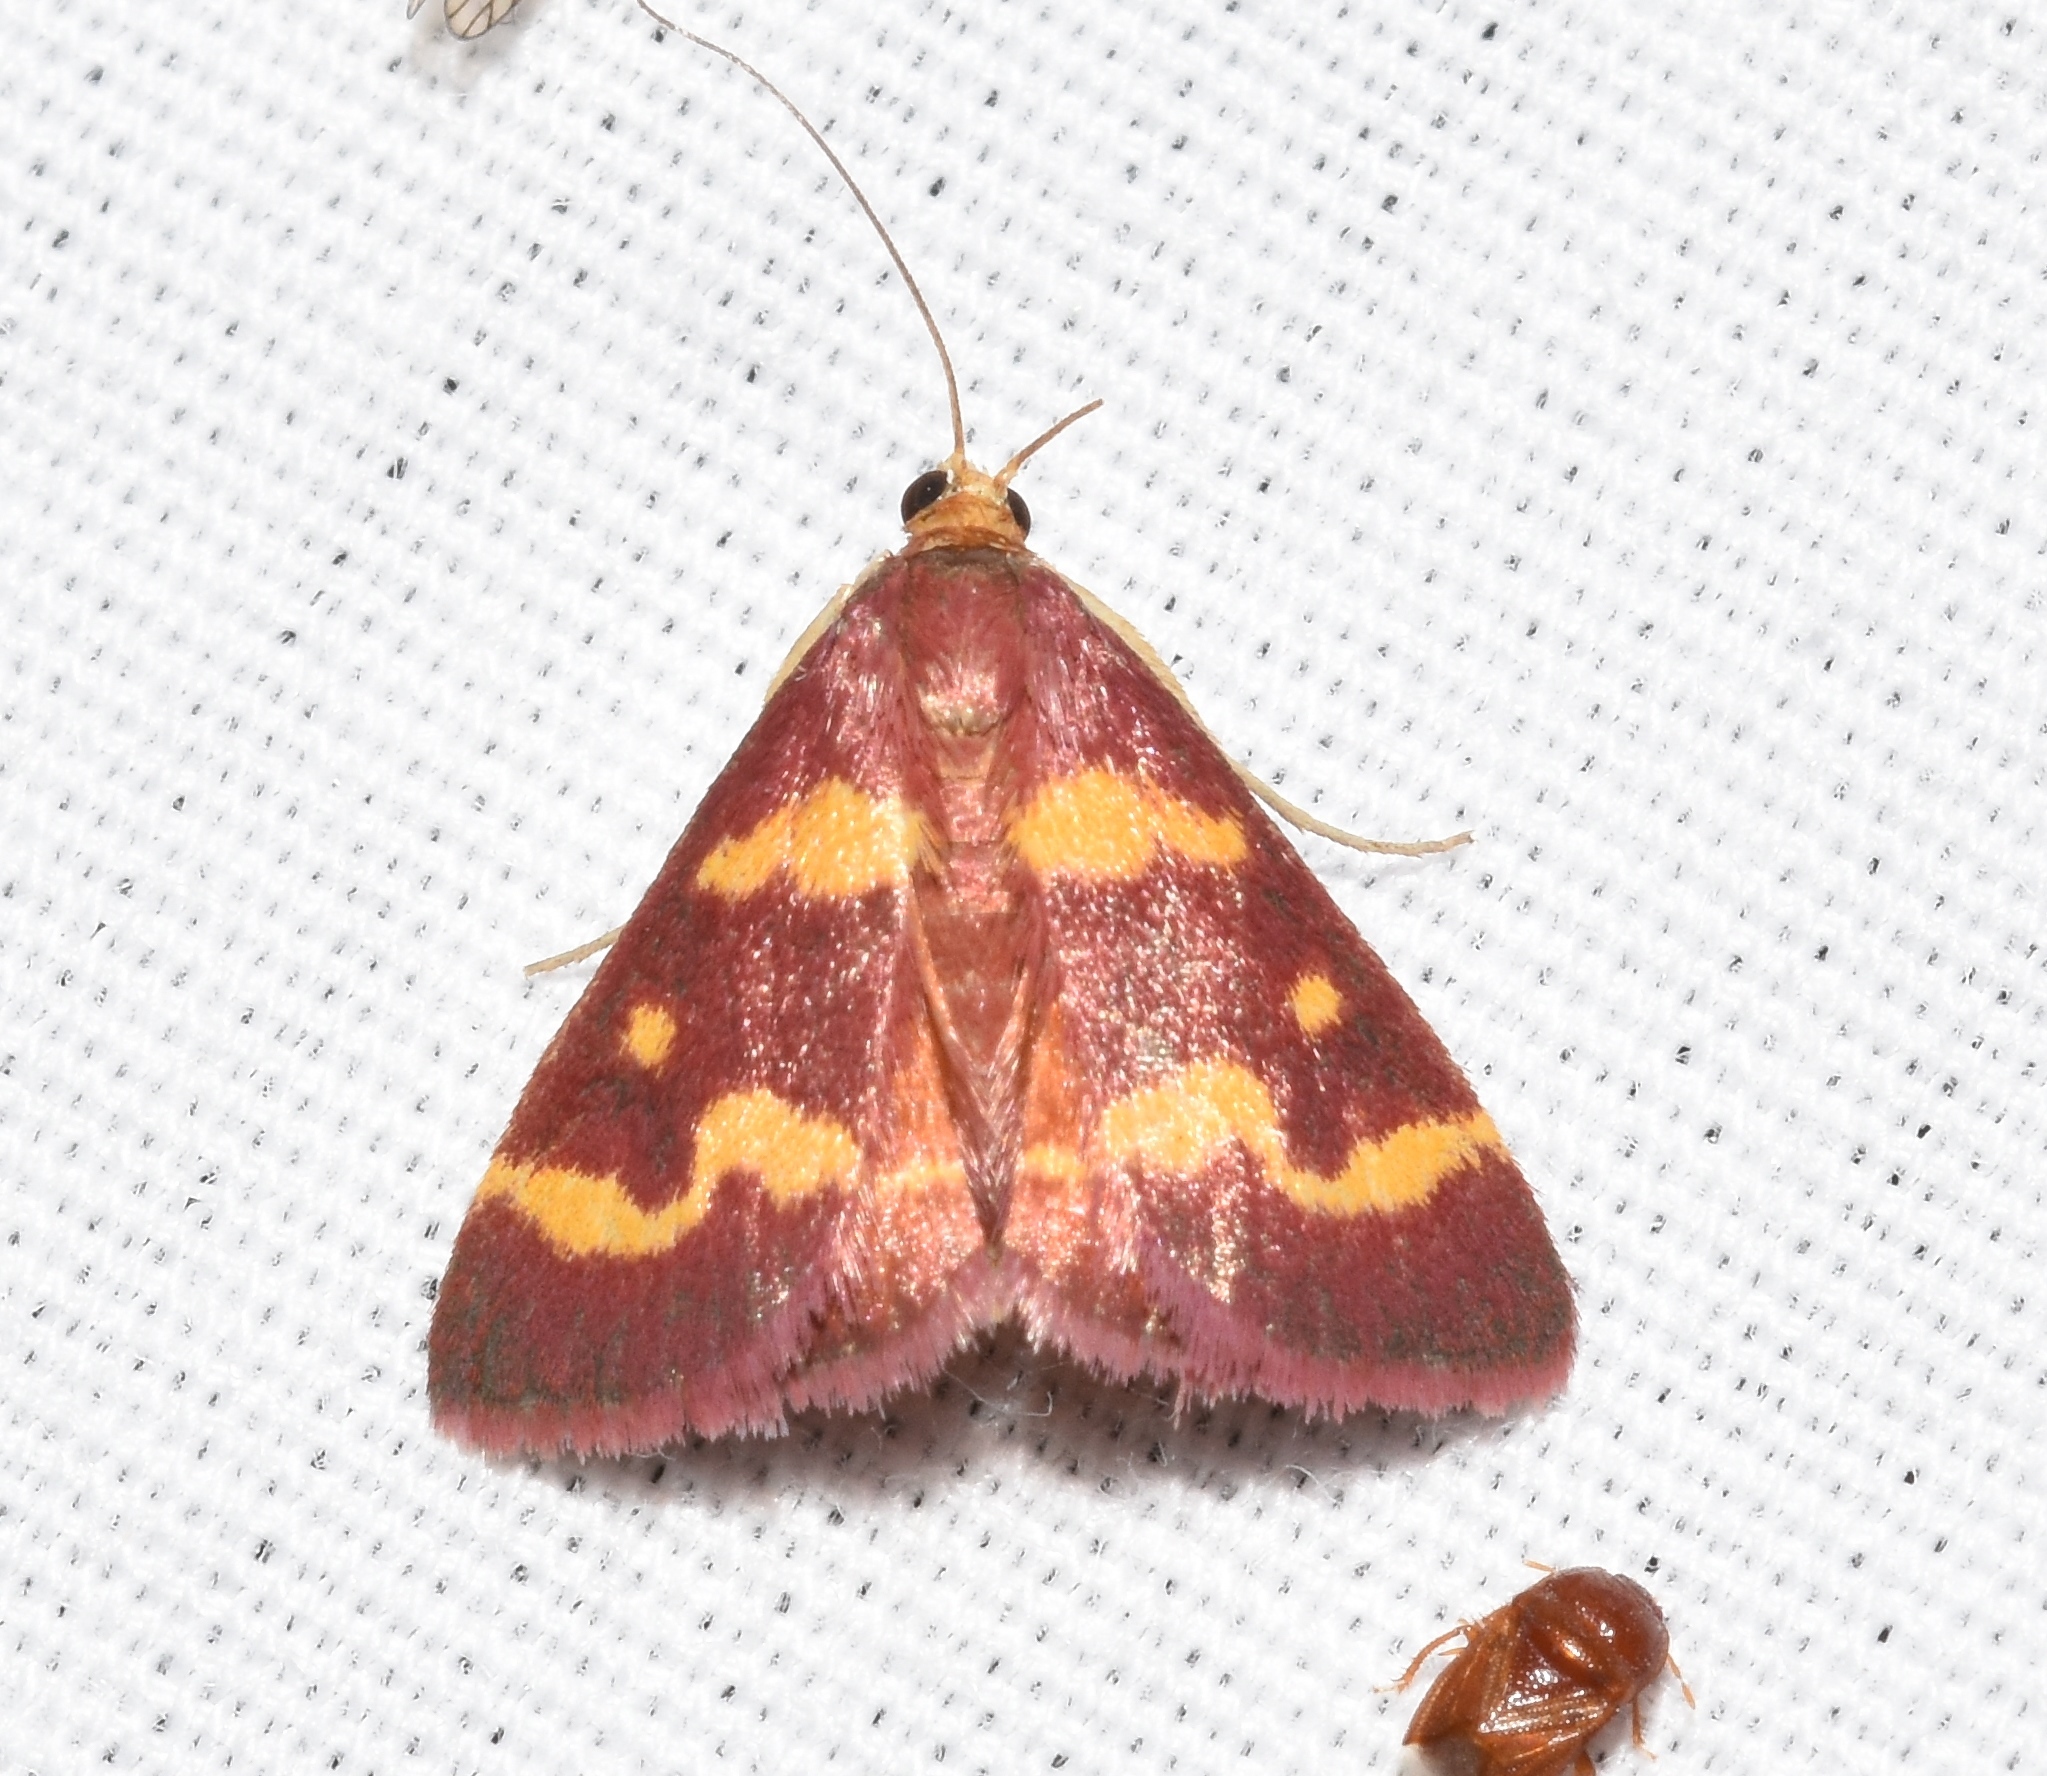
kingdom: Animalia
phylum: Arthropoda
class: Insecta
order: Lepidoptera
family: Crambidae
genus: Pyrausta
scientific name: Pyrausta tyralis
